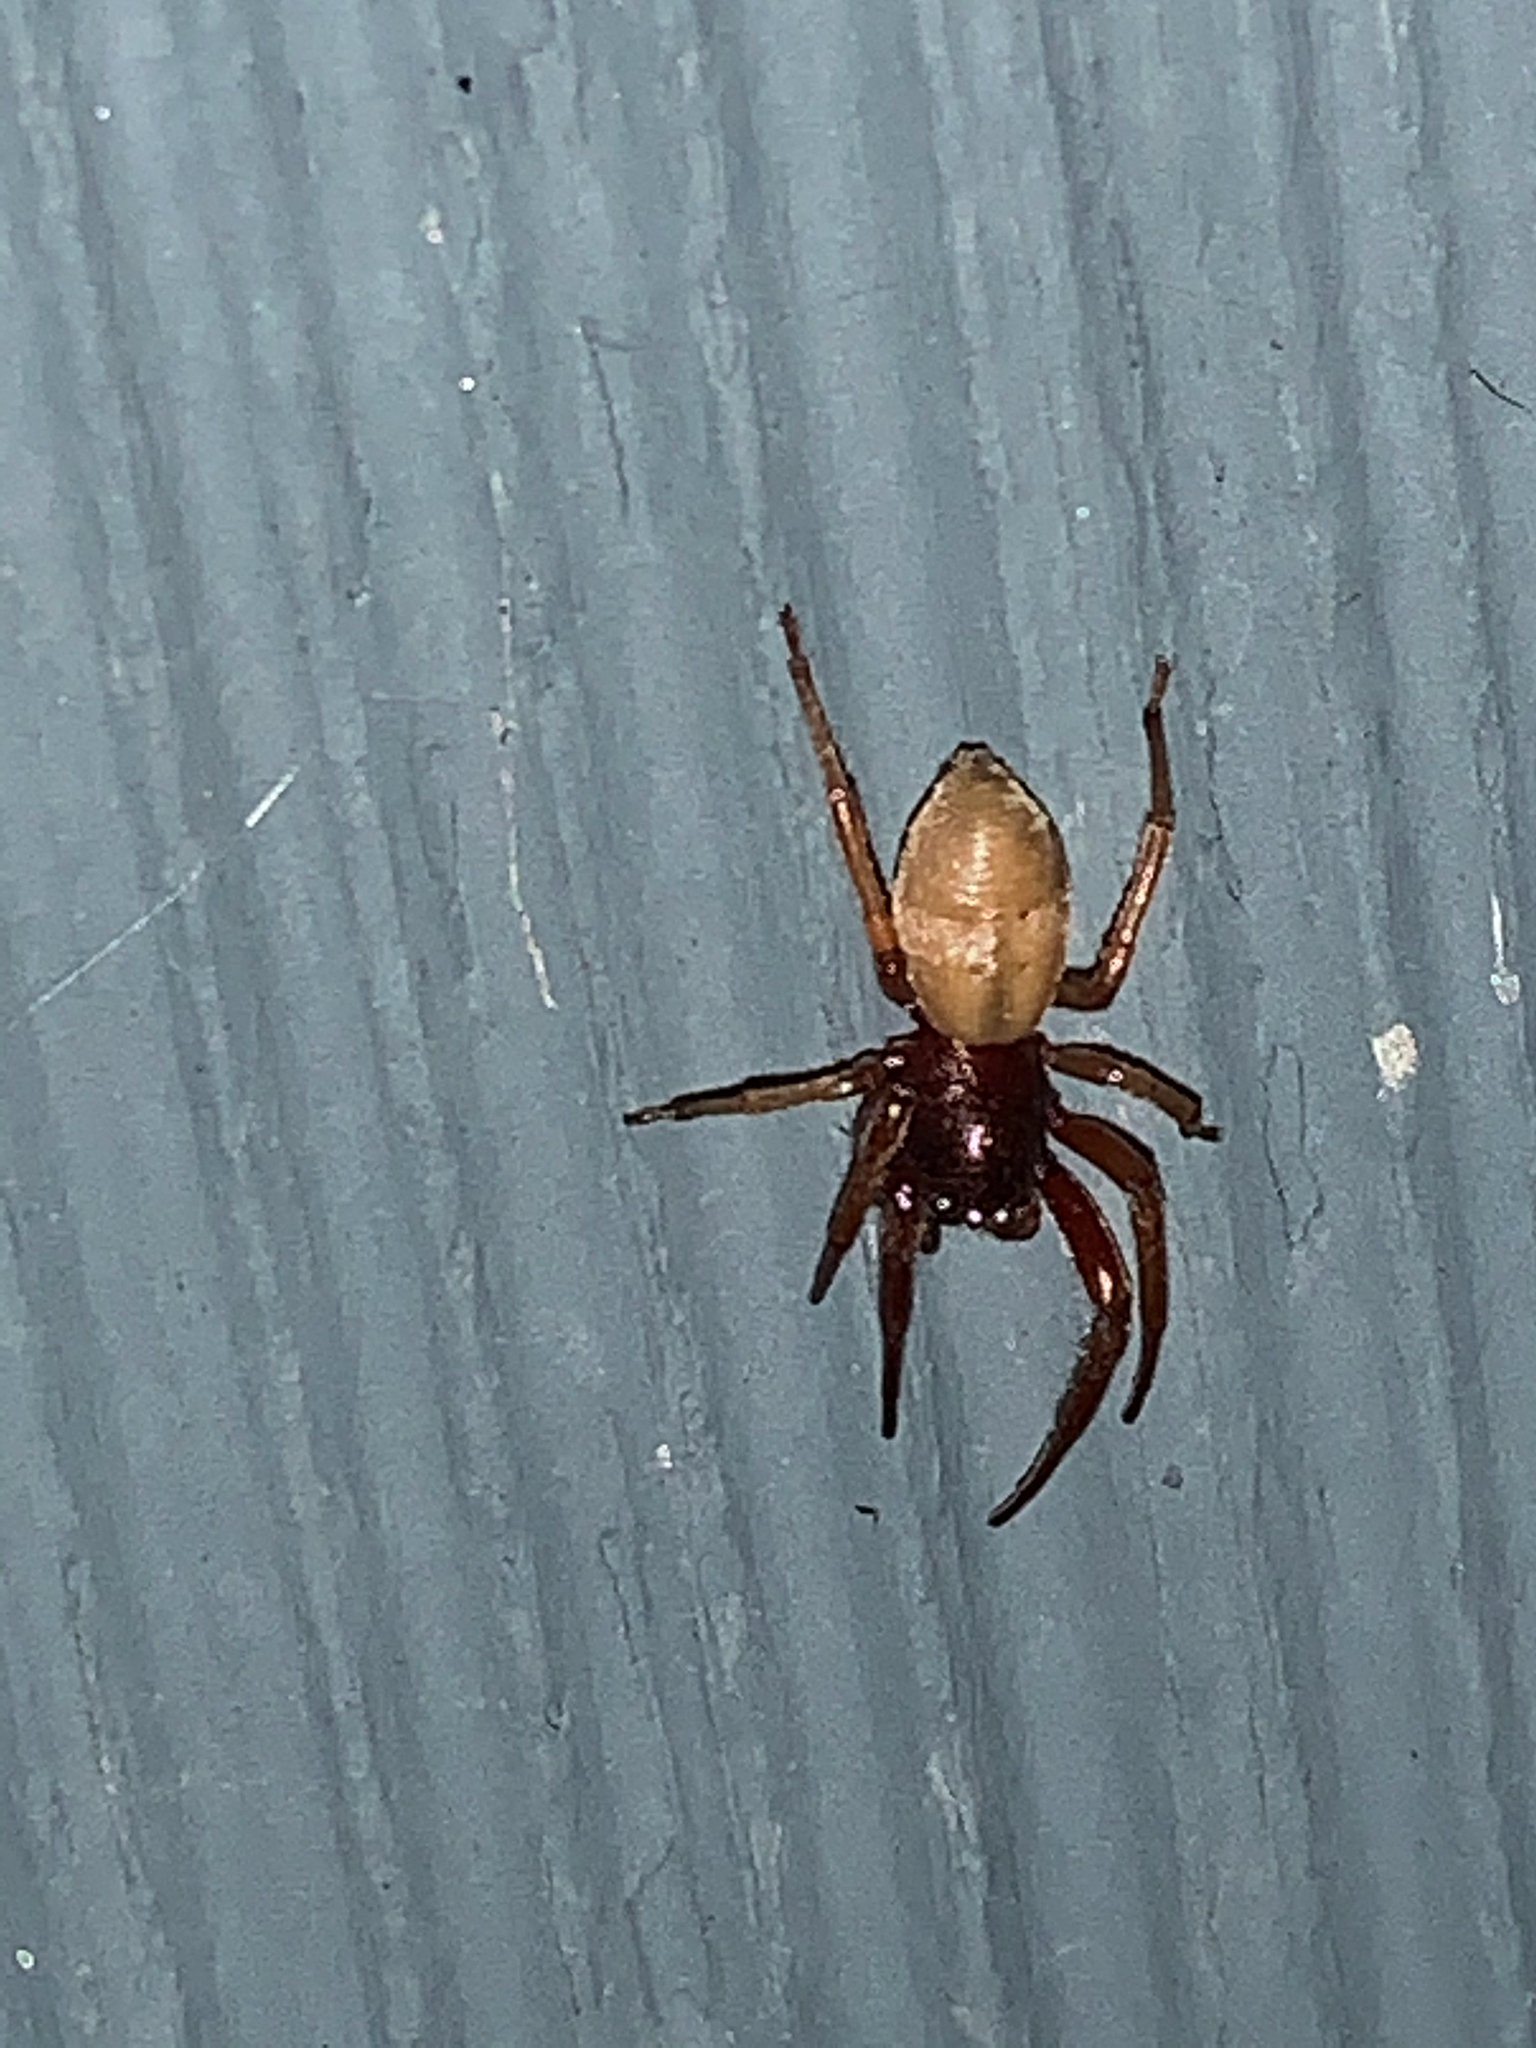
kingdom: Animalia
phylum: Arthropoda
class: Arachnida
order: Araneae
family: Trachelidae
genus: Trachelas
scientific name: Trachelas tranquillus
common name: Broad-faced sac spider
